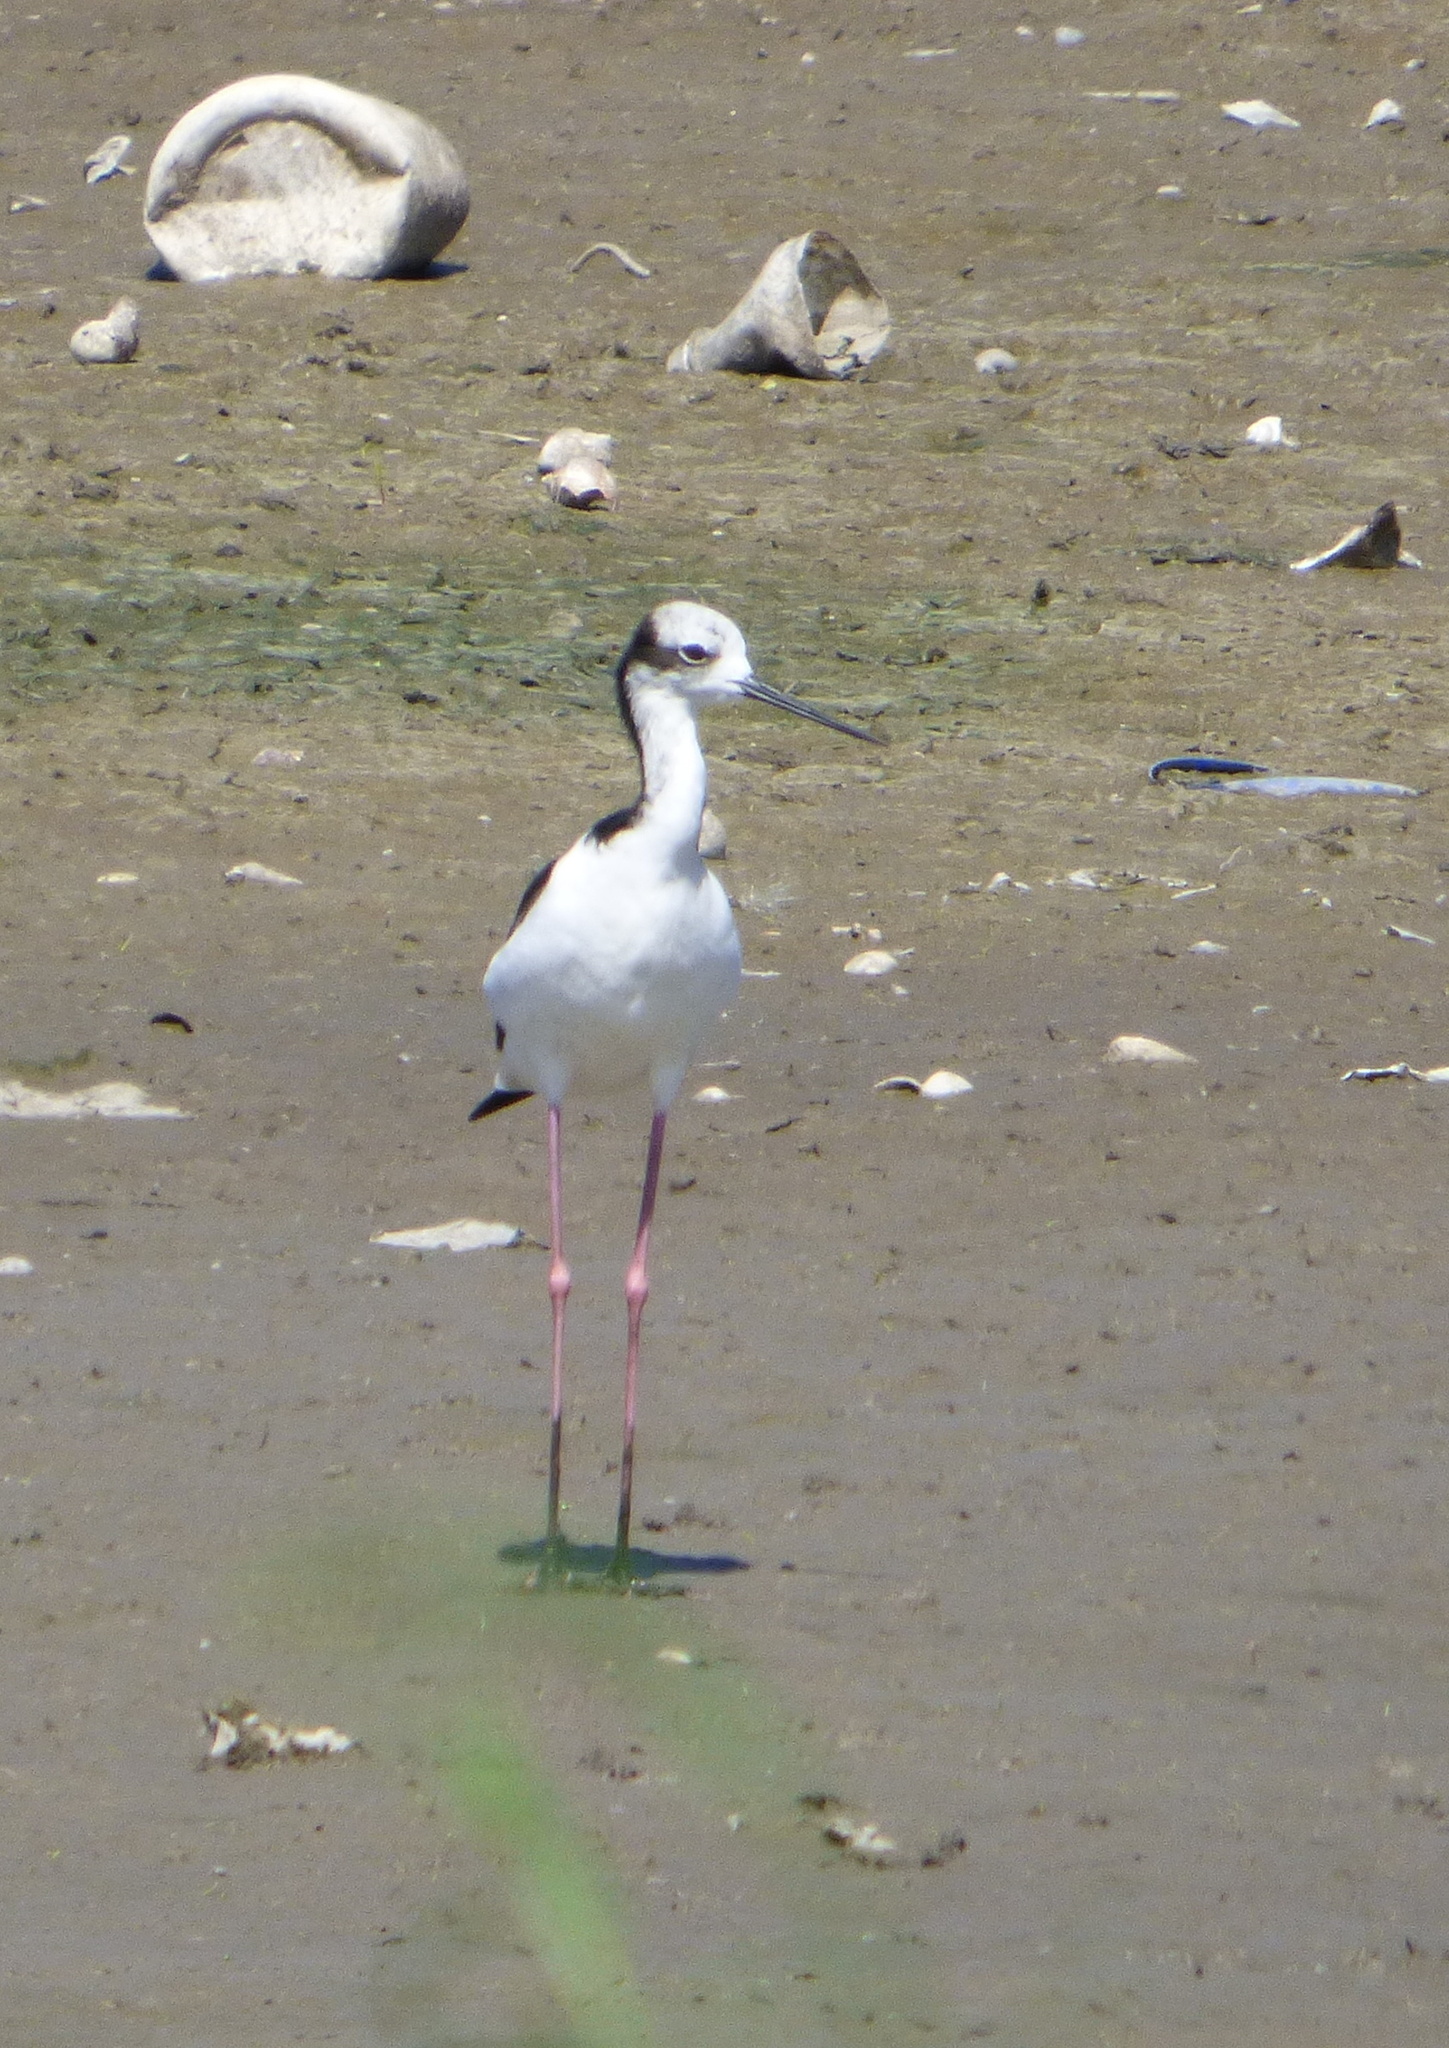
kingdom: Animalia
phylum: Chordata
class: Aves
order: Charadriiformes
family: Recurvirostridae
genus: Himantopus
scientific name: Himantopus mexicanus
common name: Black-necked stilt
